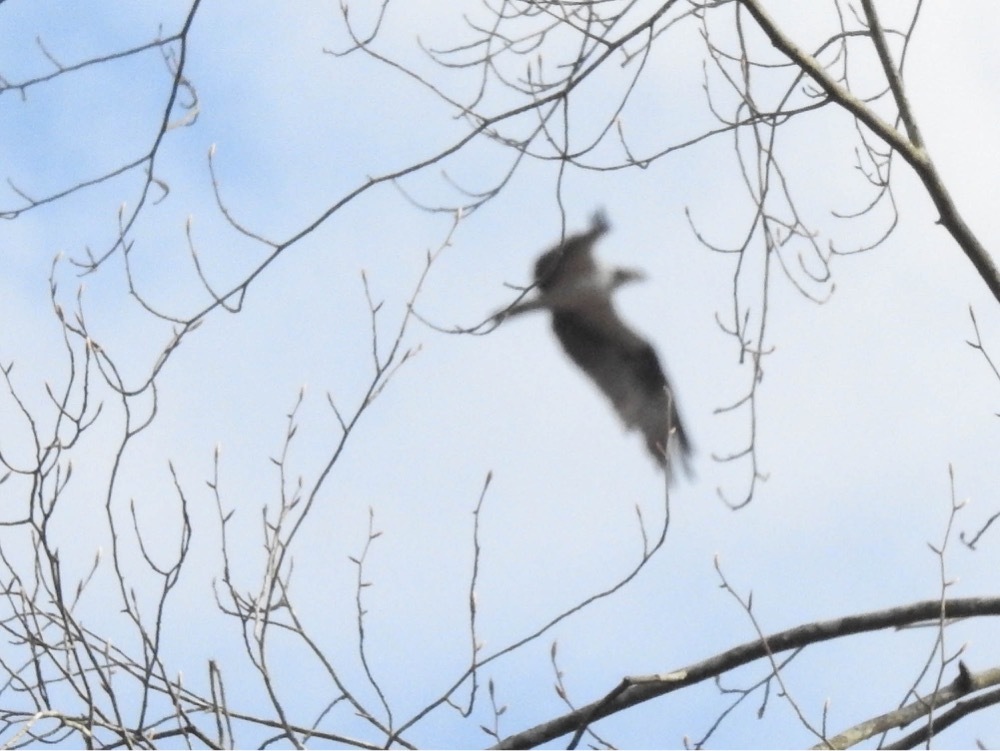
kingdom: Animalia
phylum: Chordata
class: Aves
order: Accipitriformes
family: Pandionidae
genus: Pandion
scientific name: Pandion haliaetus
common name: Osprey
